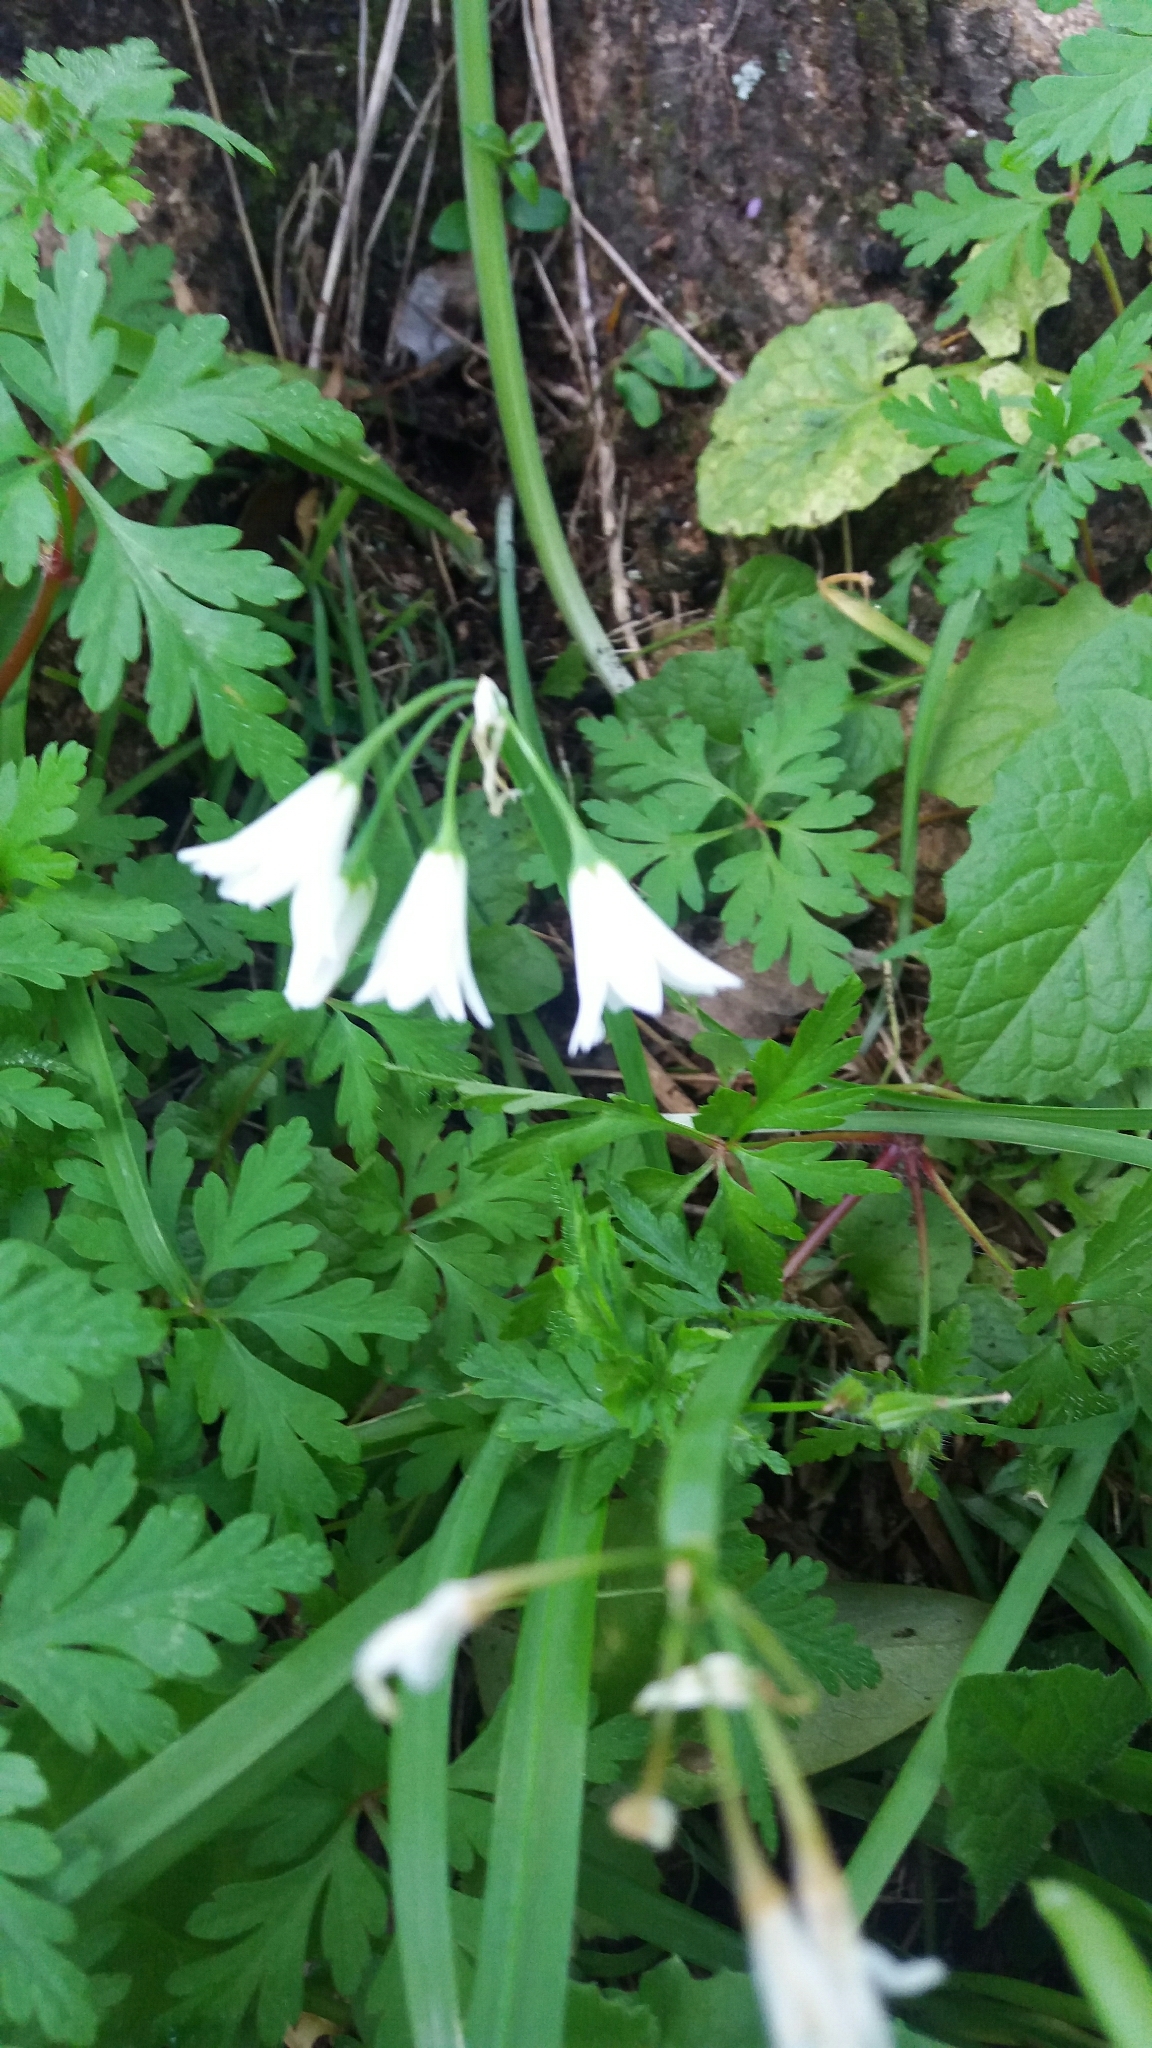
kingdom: Plantae
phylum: Tracheophyta
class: Liliopsida
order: Asparagales
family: Amaryllidaceae
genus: Allium
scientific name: Allium triquetrum
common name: Three-cornered garlic
